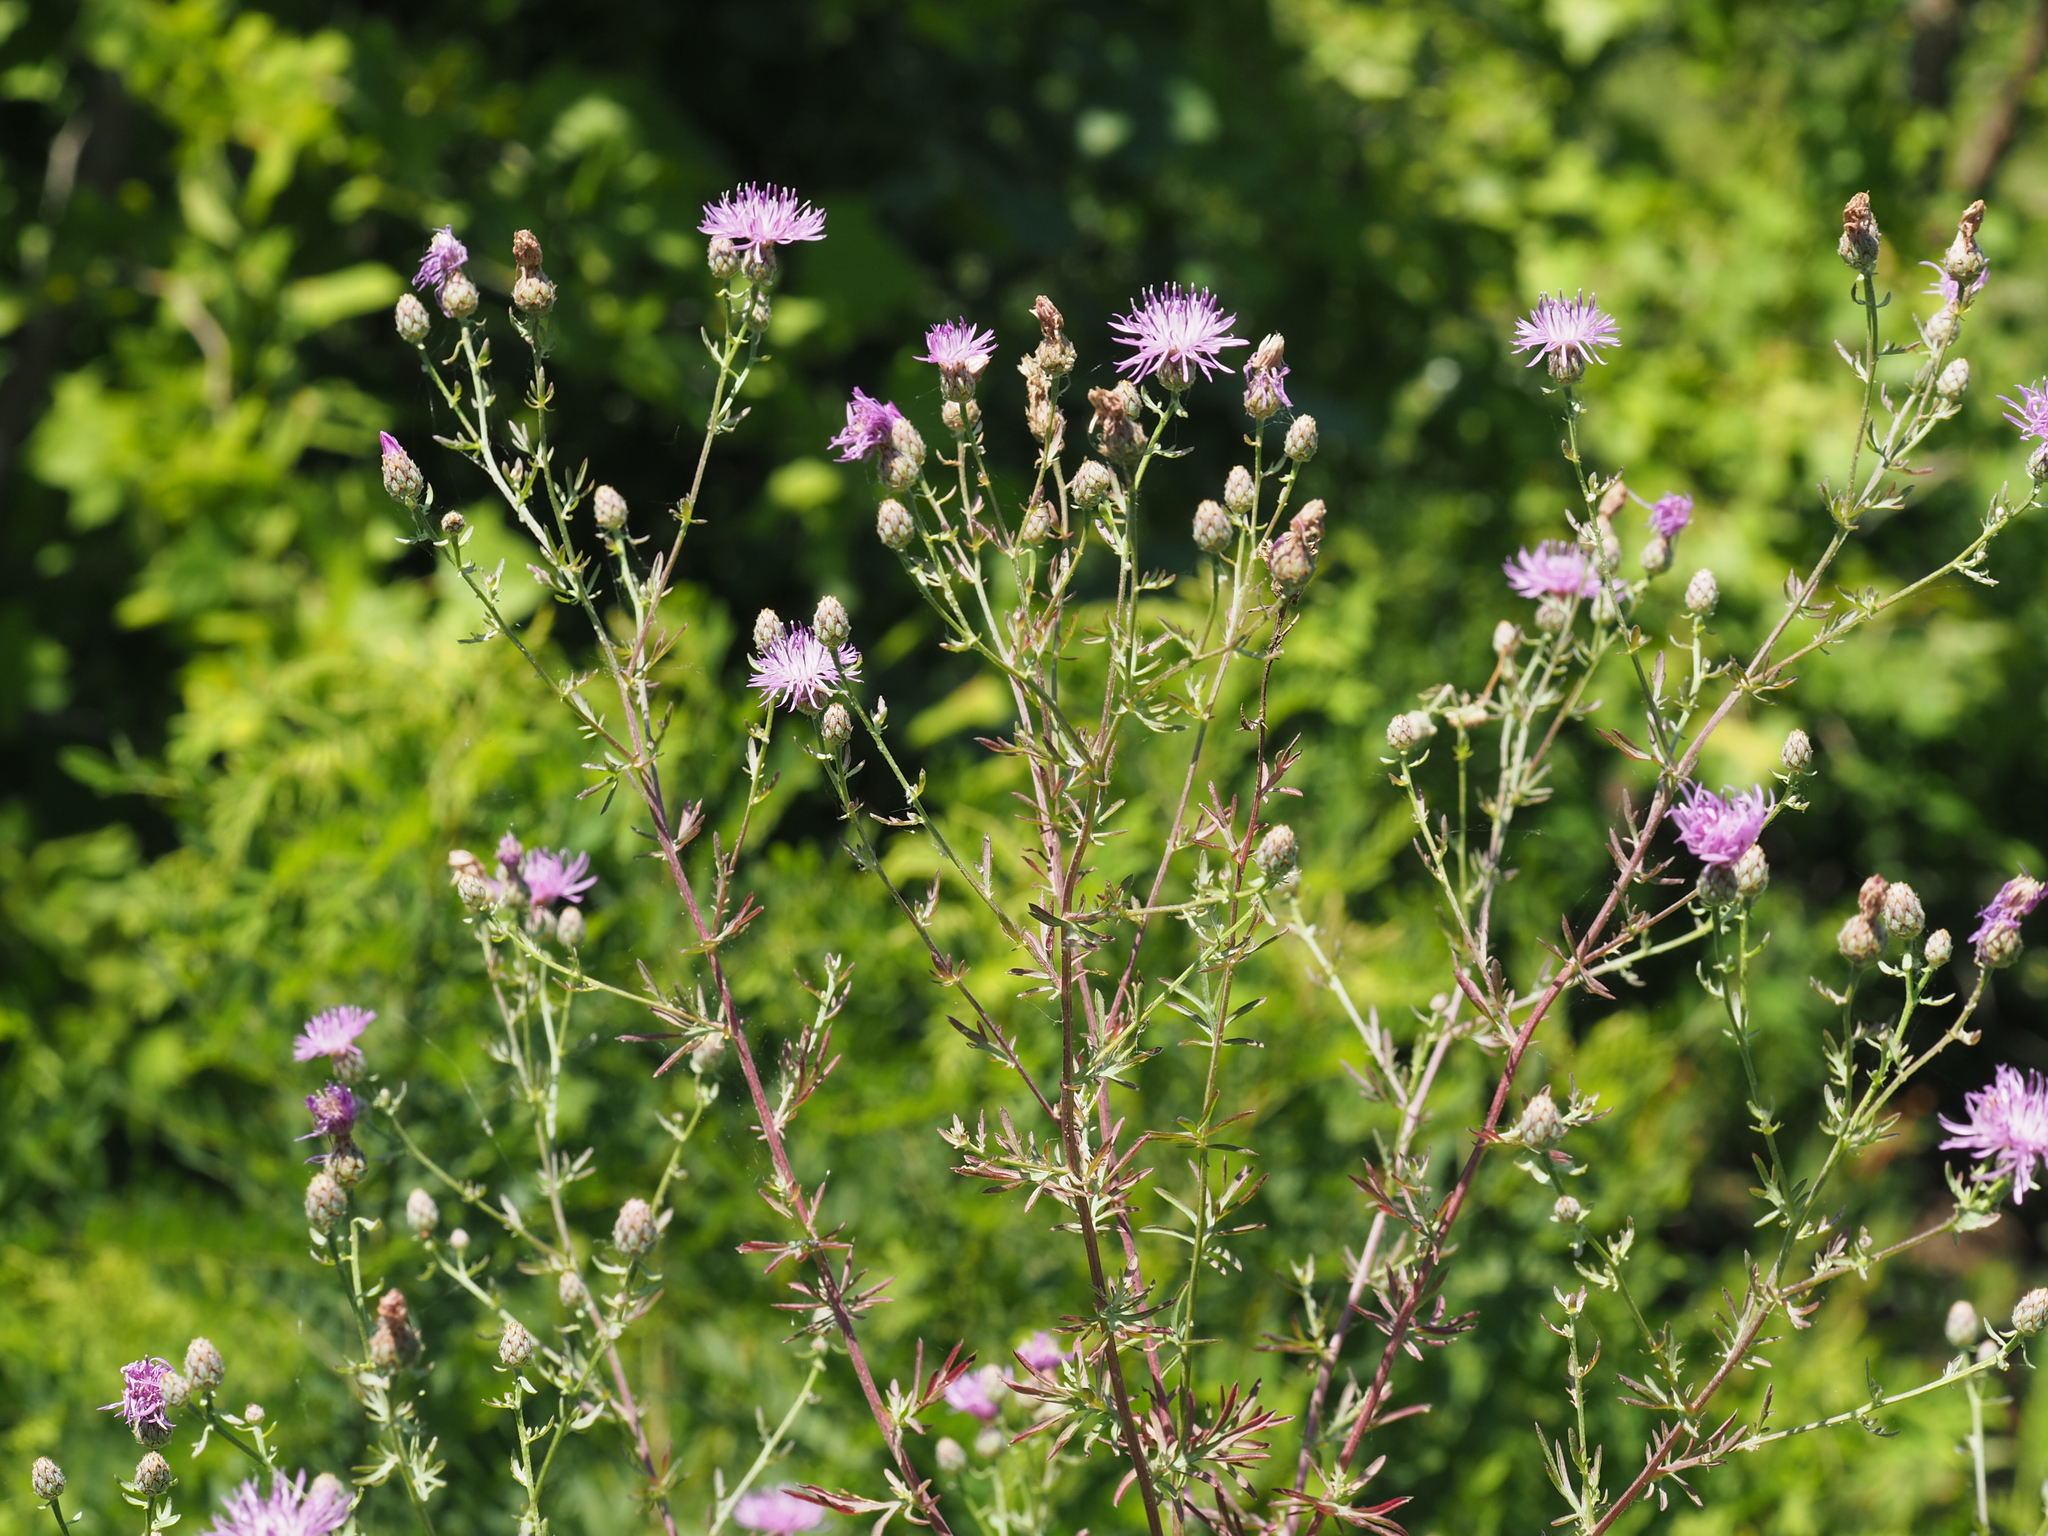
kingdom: Plantae
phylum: Tracheophyta
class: Magnoliopsida
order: Asterales
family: Asteraceae
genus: Centaurea
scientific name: Centaurea australis
